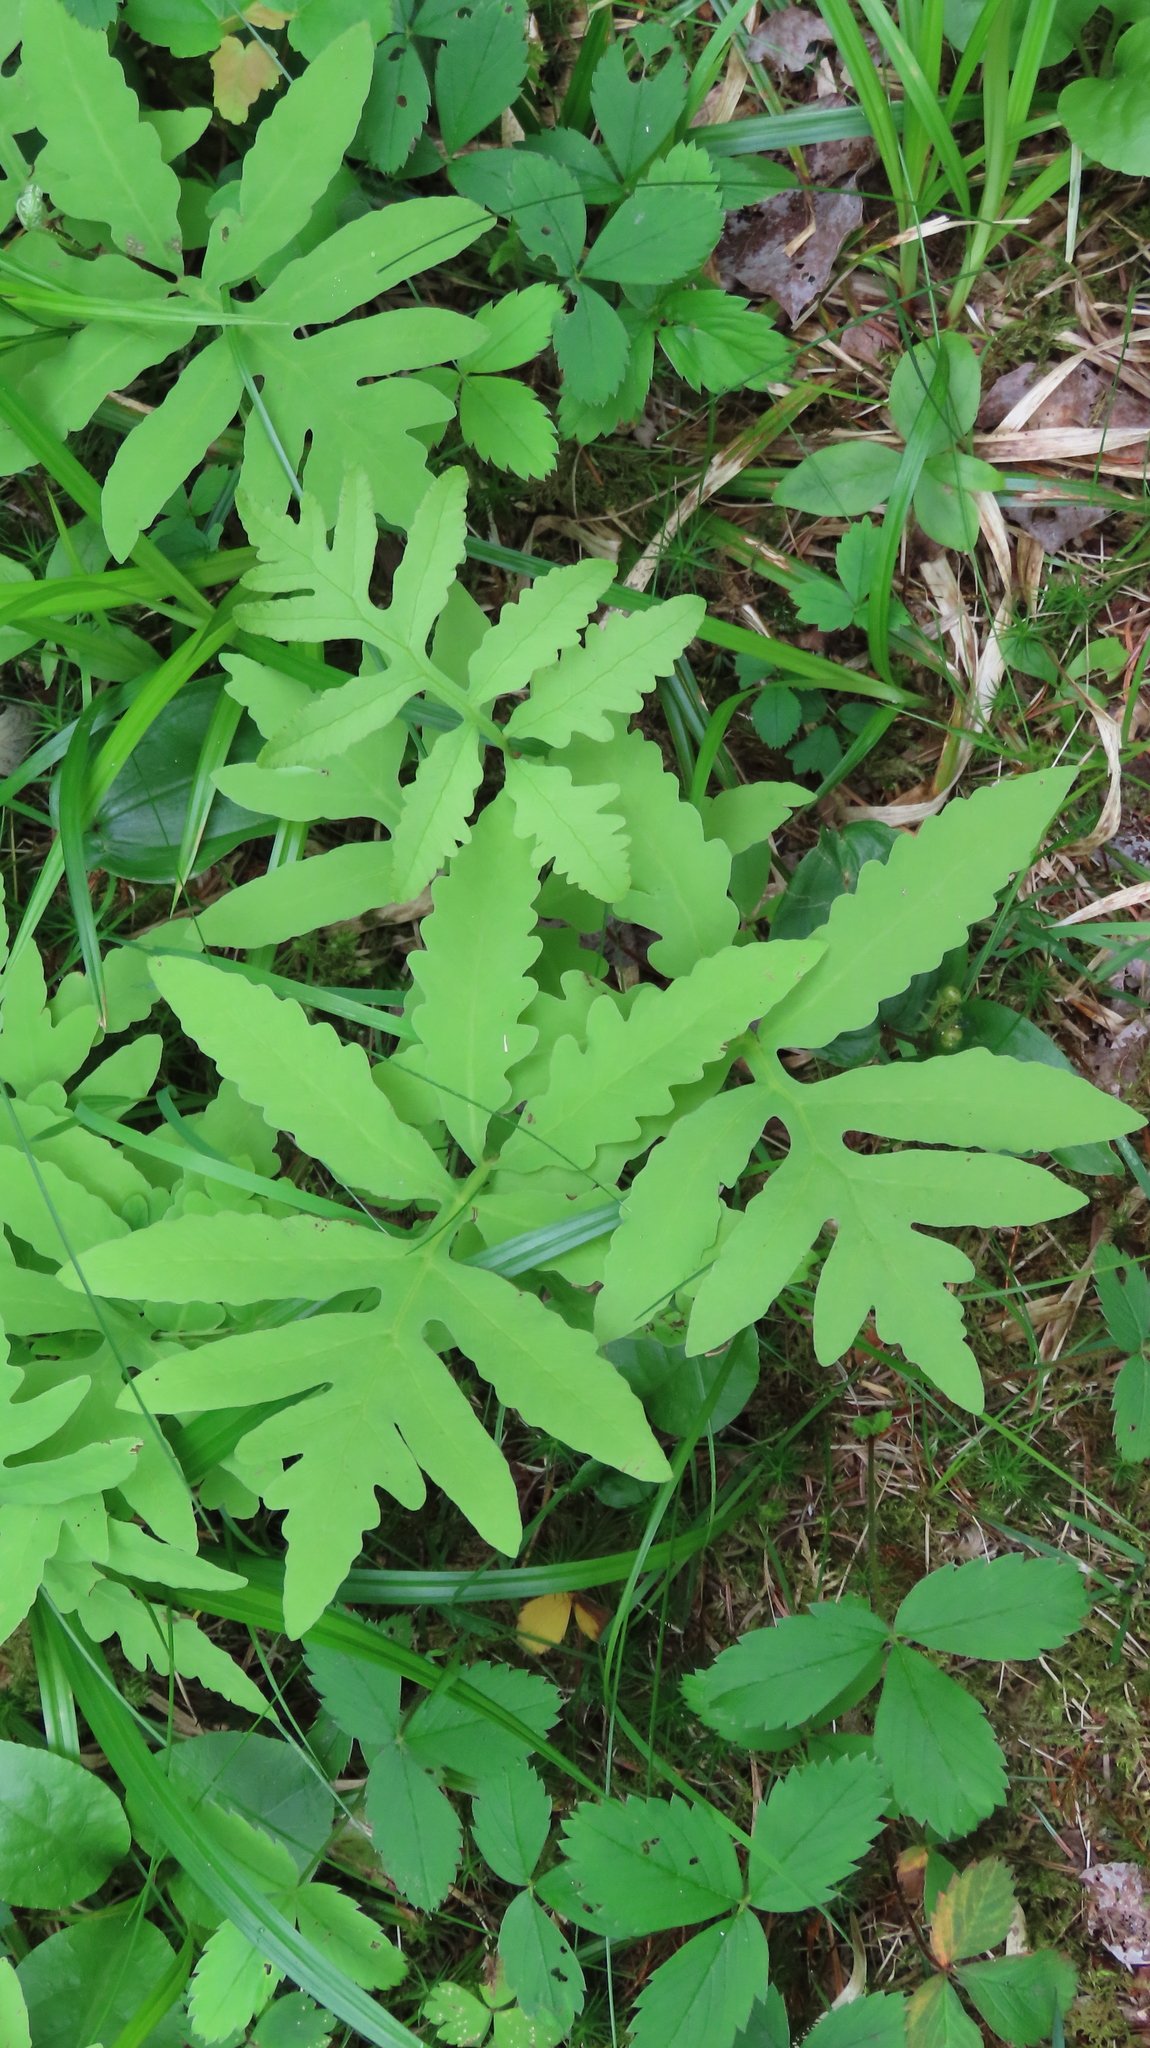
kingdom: Plantae
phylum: Tracheophyta
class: Polypodiopsida
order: Polypodiales
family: Onocleaceae
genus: Onoclea
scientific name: Onoclea sensibilis
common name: Sensitive fern
